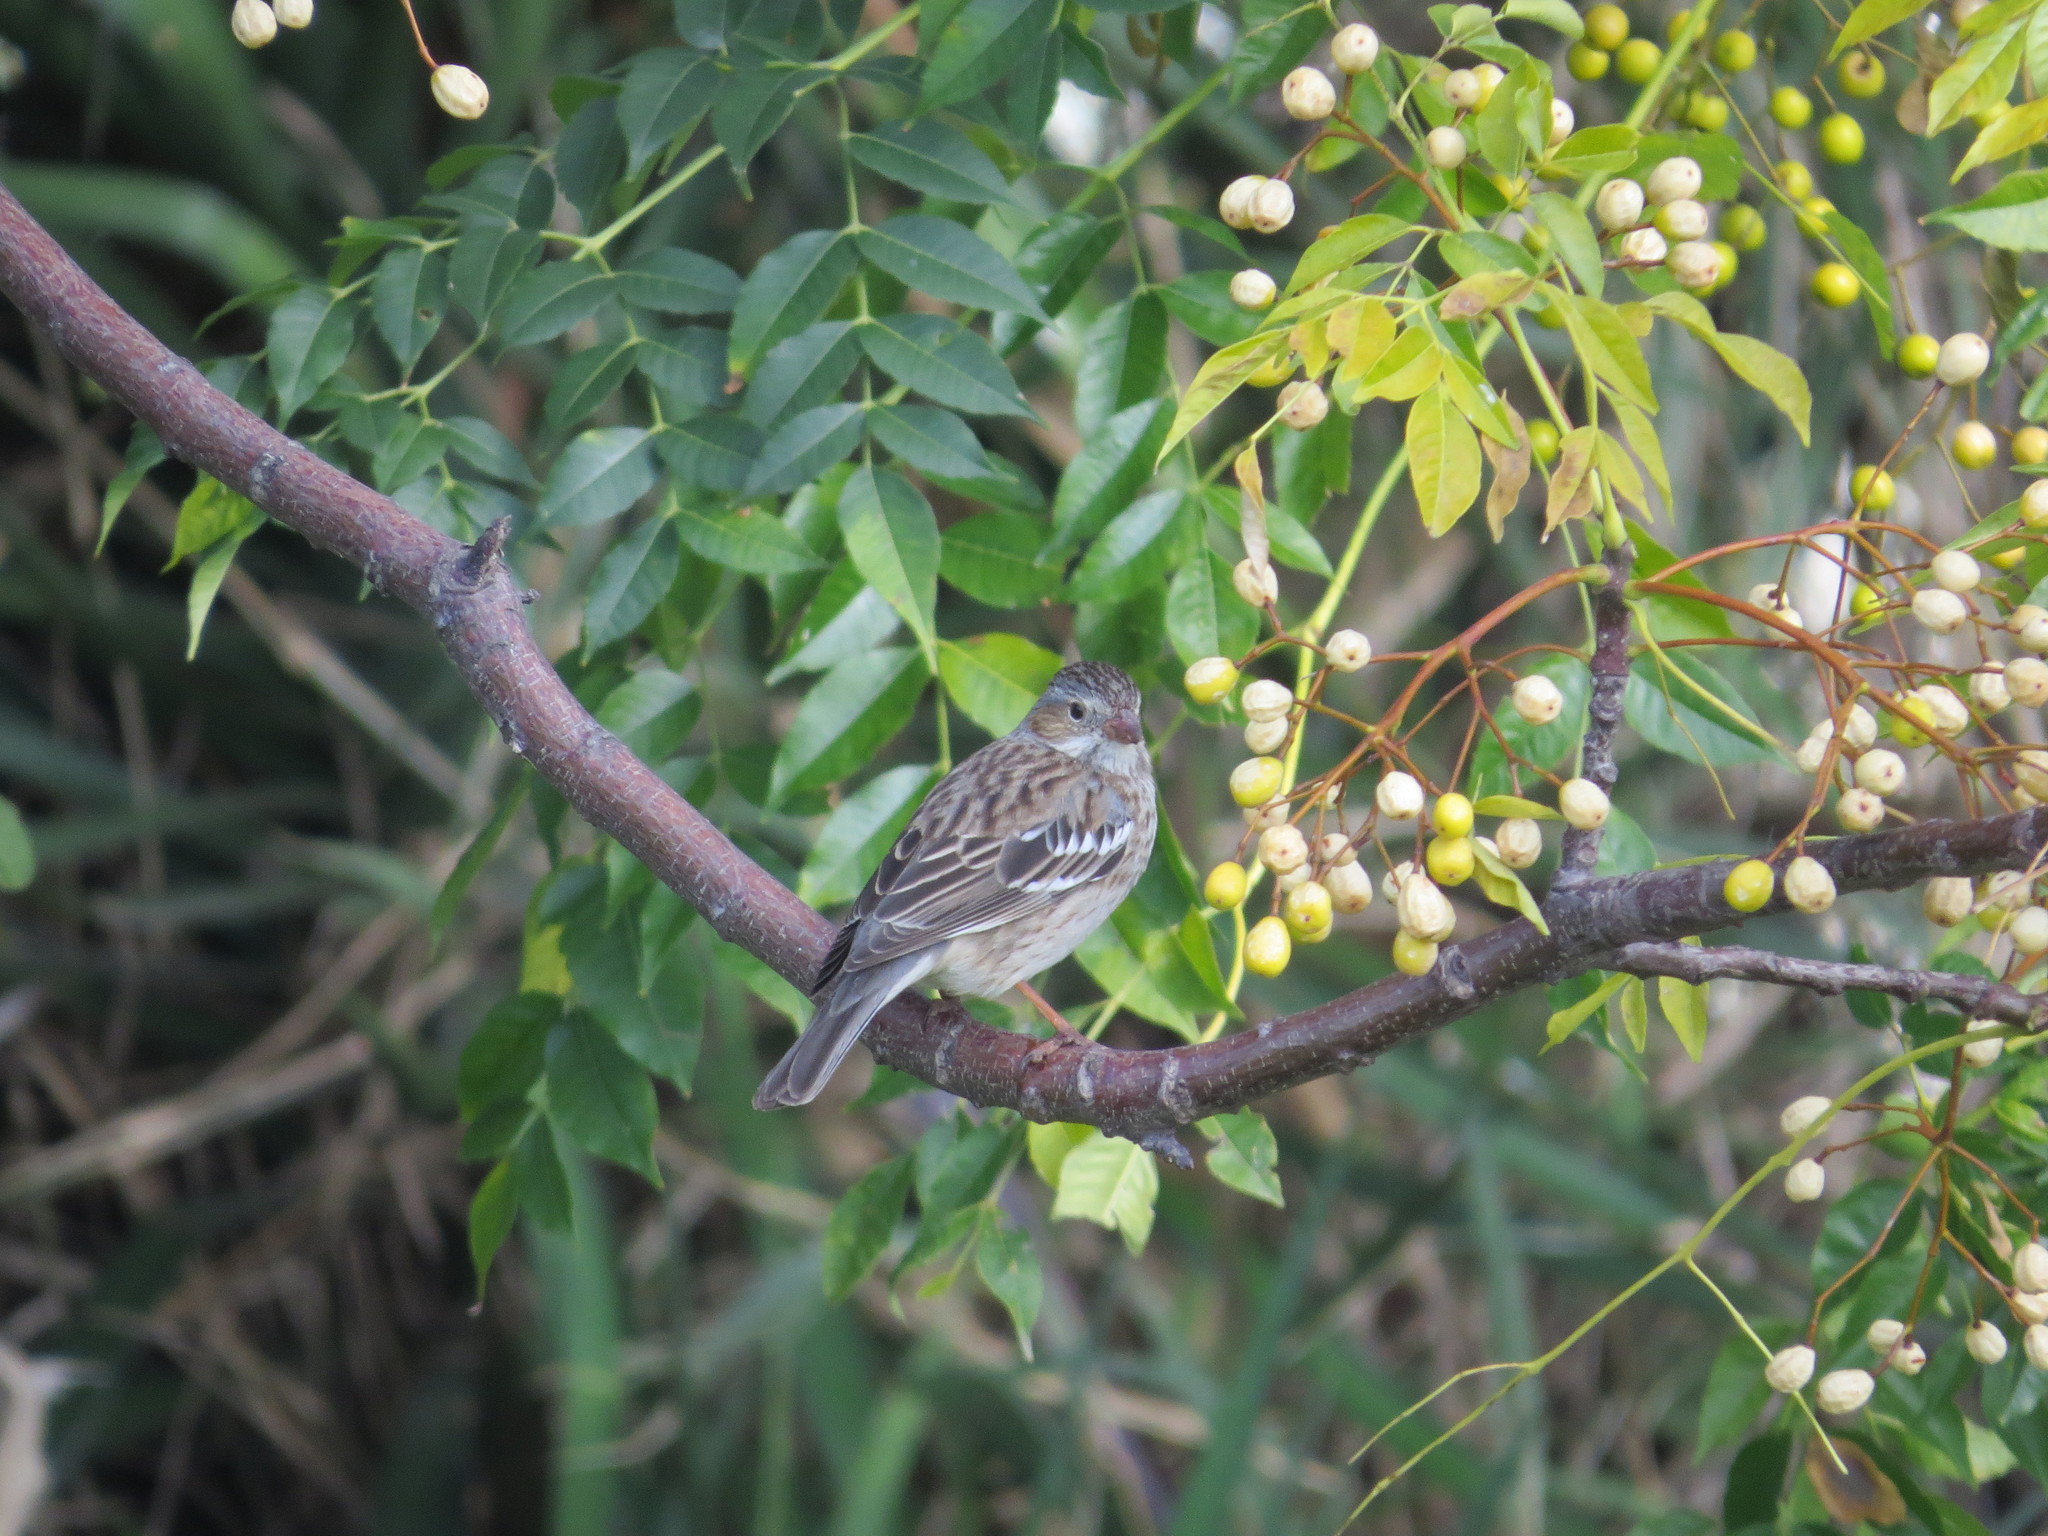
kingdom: Animalia
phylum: Chordata
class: Aves
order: Passeriformes
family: Thraupidae
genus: Rhopospina
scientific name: Rhopospina fruticeti
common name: Mourning sierra finch
